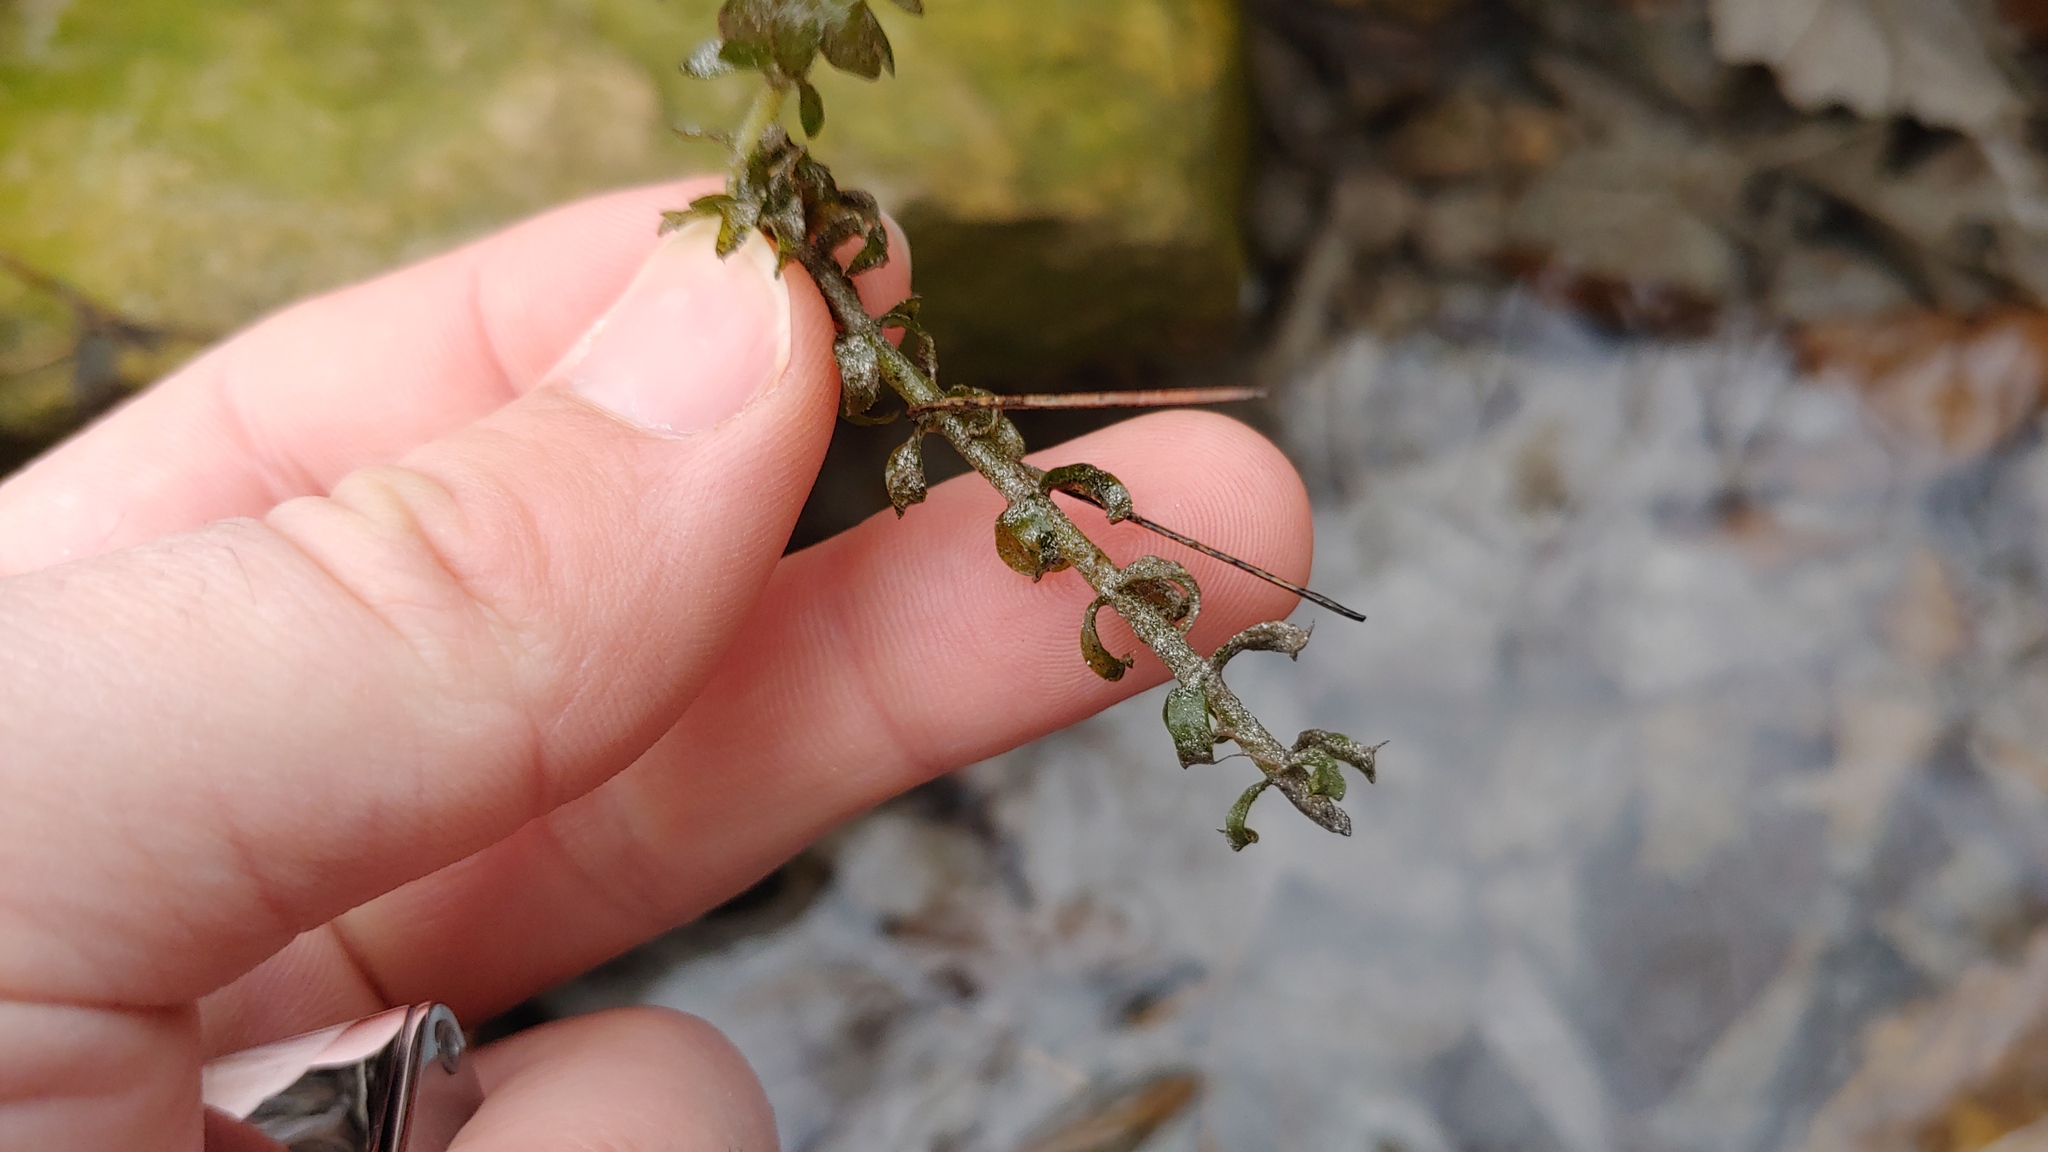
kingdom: Plantae
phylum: Tracheophyta
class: Liliopsida
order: Alismatales
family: Hydrocharitaceae
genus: Elodea
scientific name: Elodea canadensis
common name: Canadian waterweed
